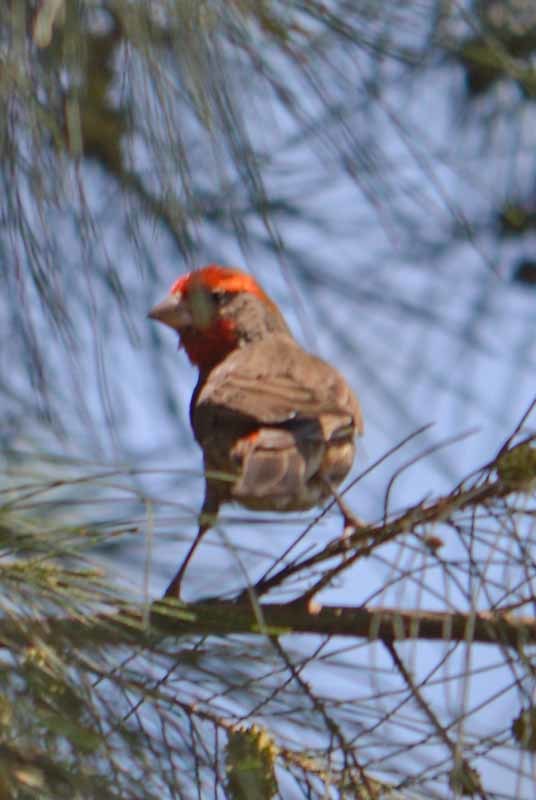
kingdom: Animalia
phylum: Chordata
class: Aves
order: Passeriformes
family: Fringillidae
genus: Haemorhous
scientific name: Haemorhous mexicanus
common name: House finch
